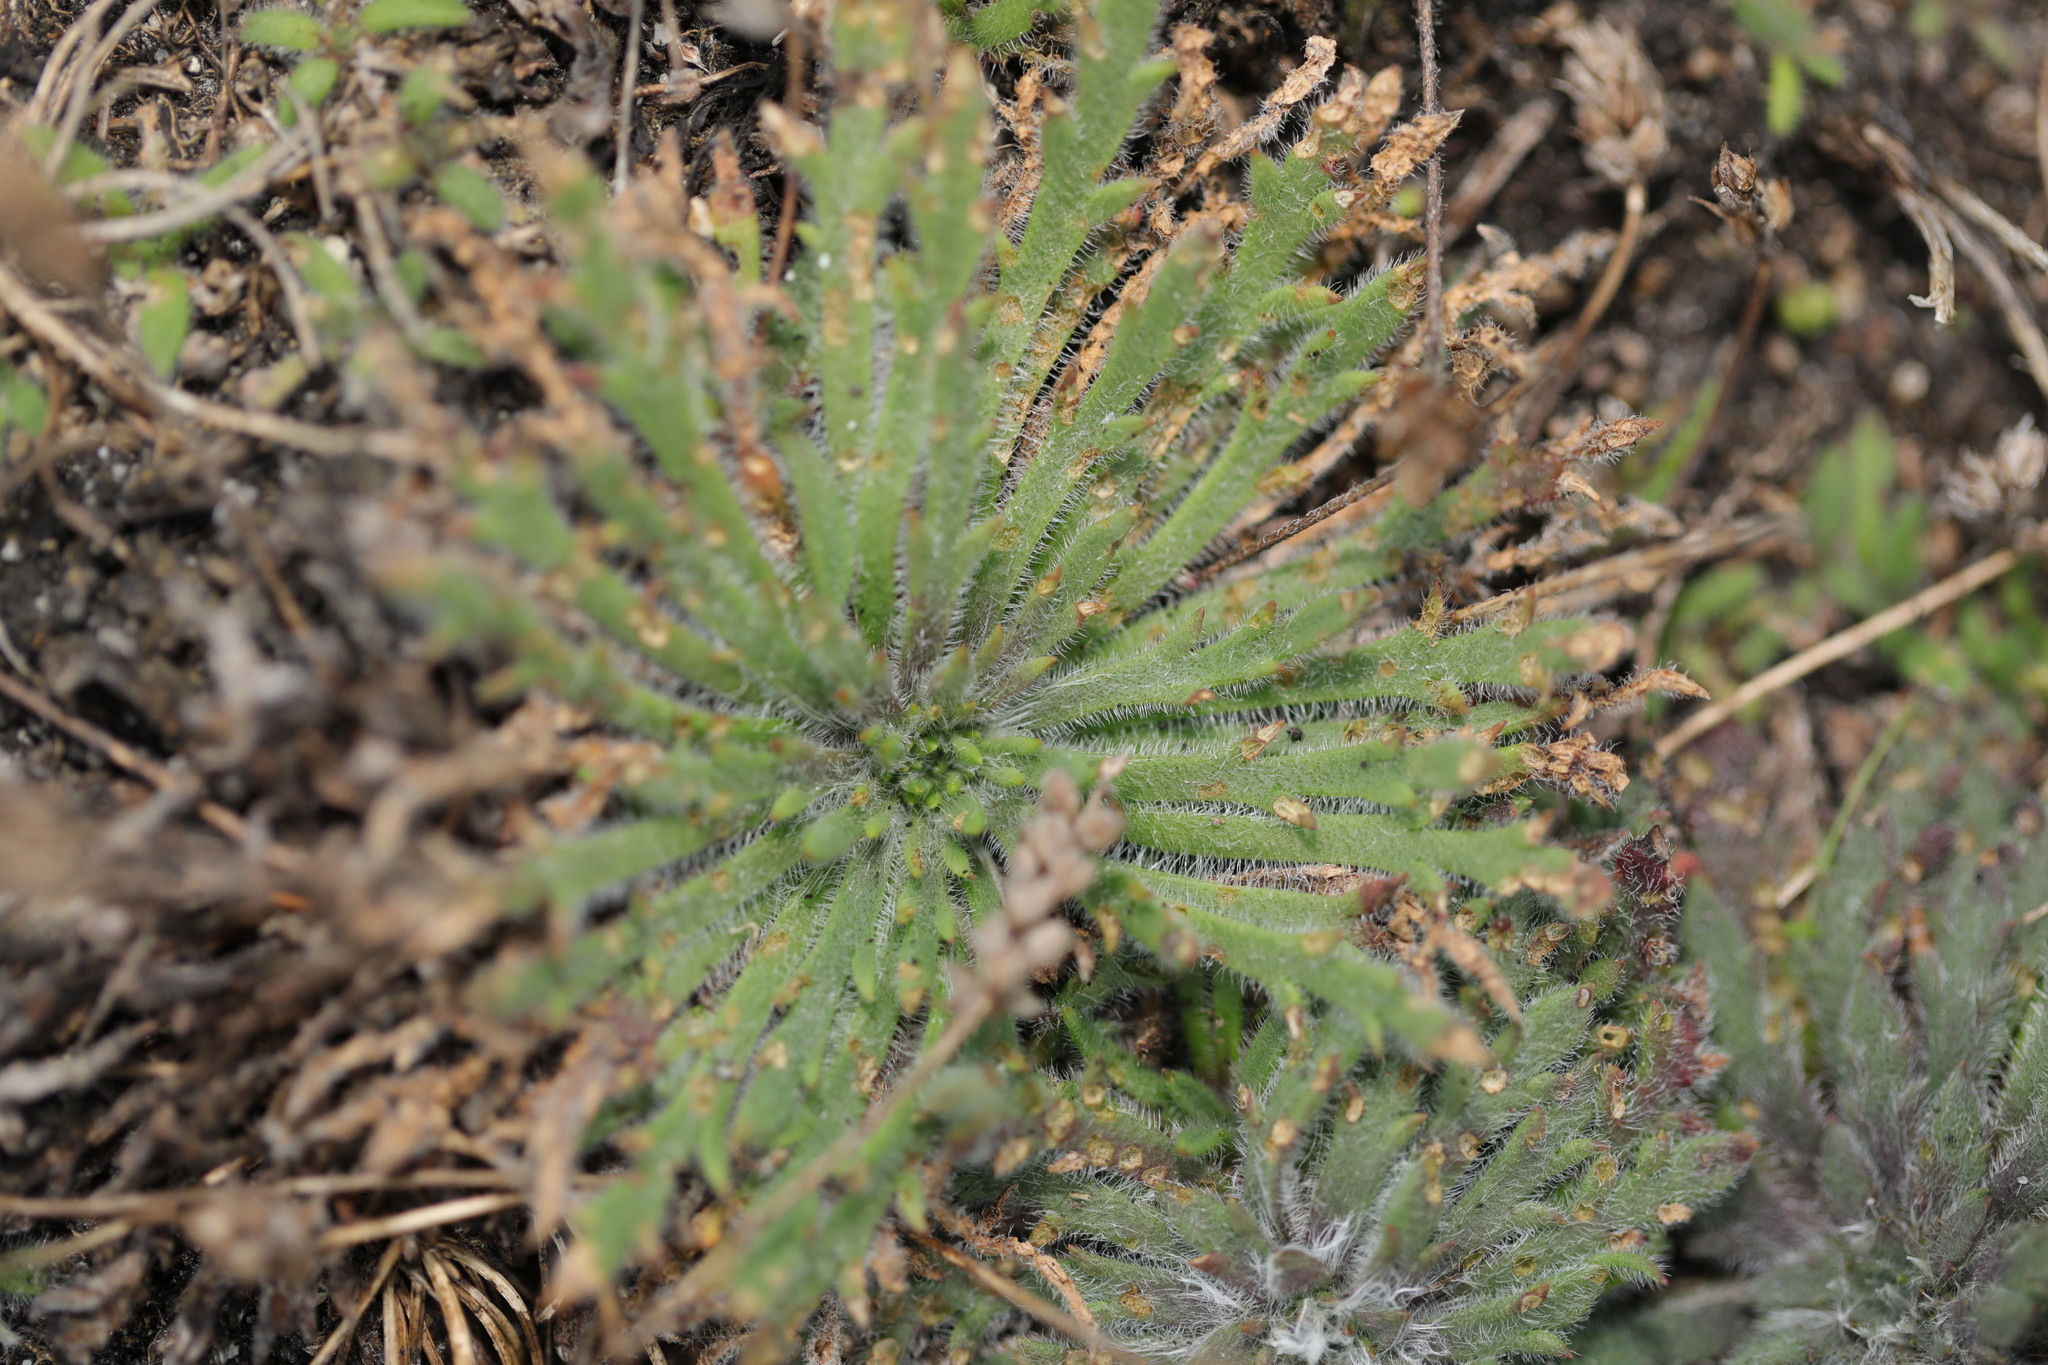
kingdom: Plantae
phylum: Tracheophyta
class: Magnoliopsida
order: Lamiales
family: Plantaginaceae
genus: Plantago
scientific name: Plantago coronopus
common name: Buck's-horn plantain
